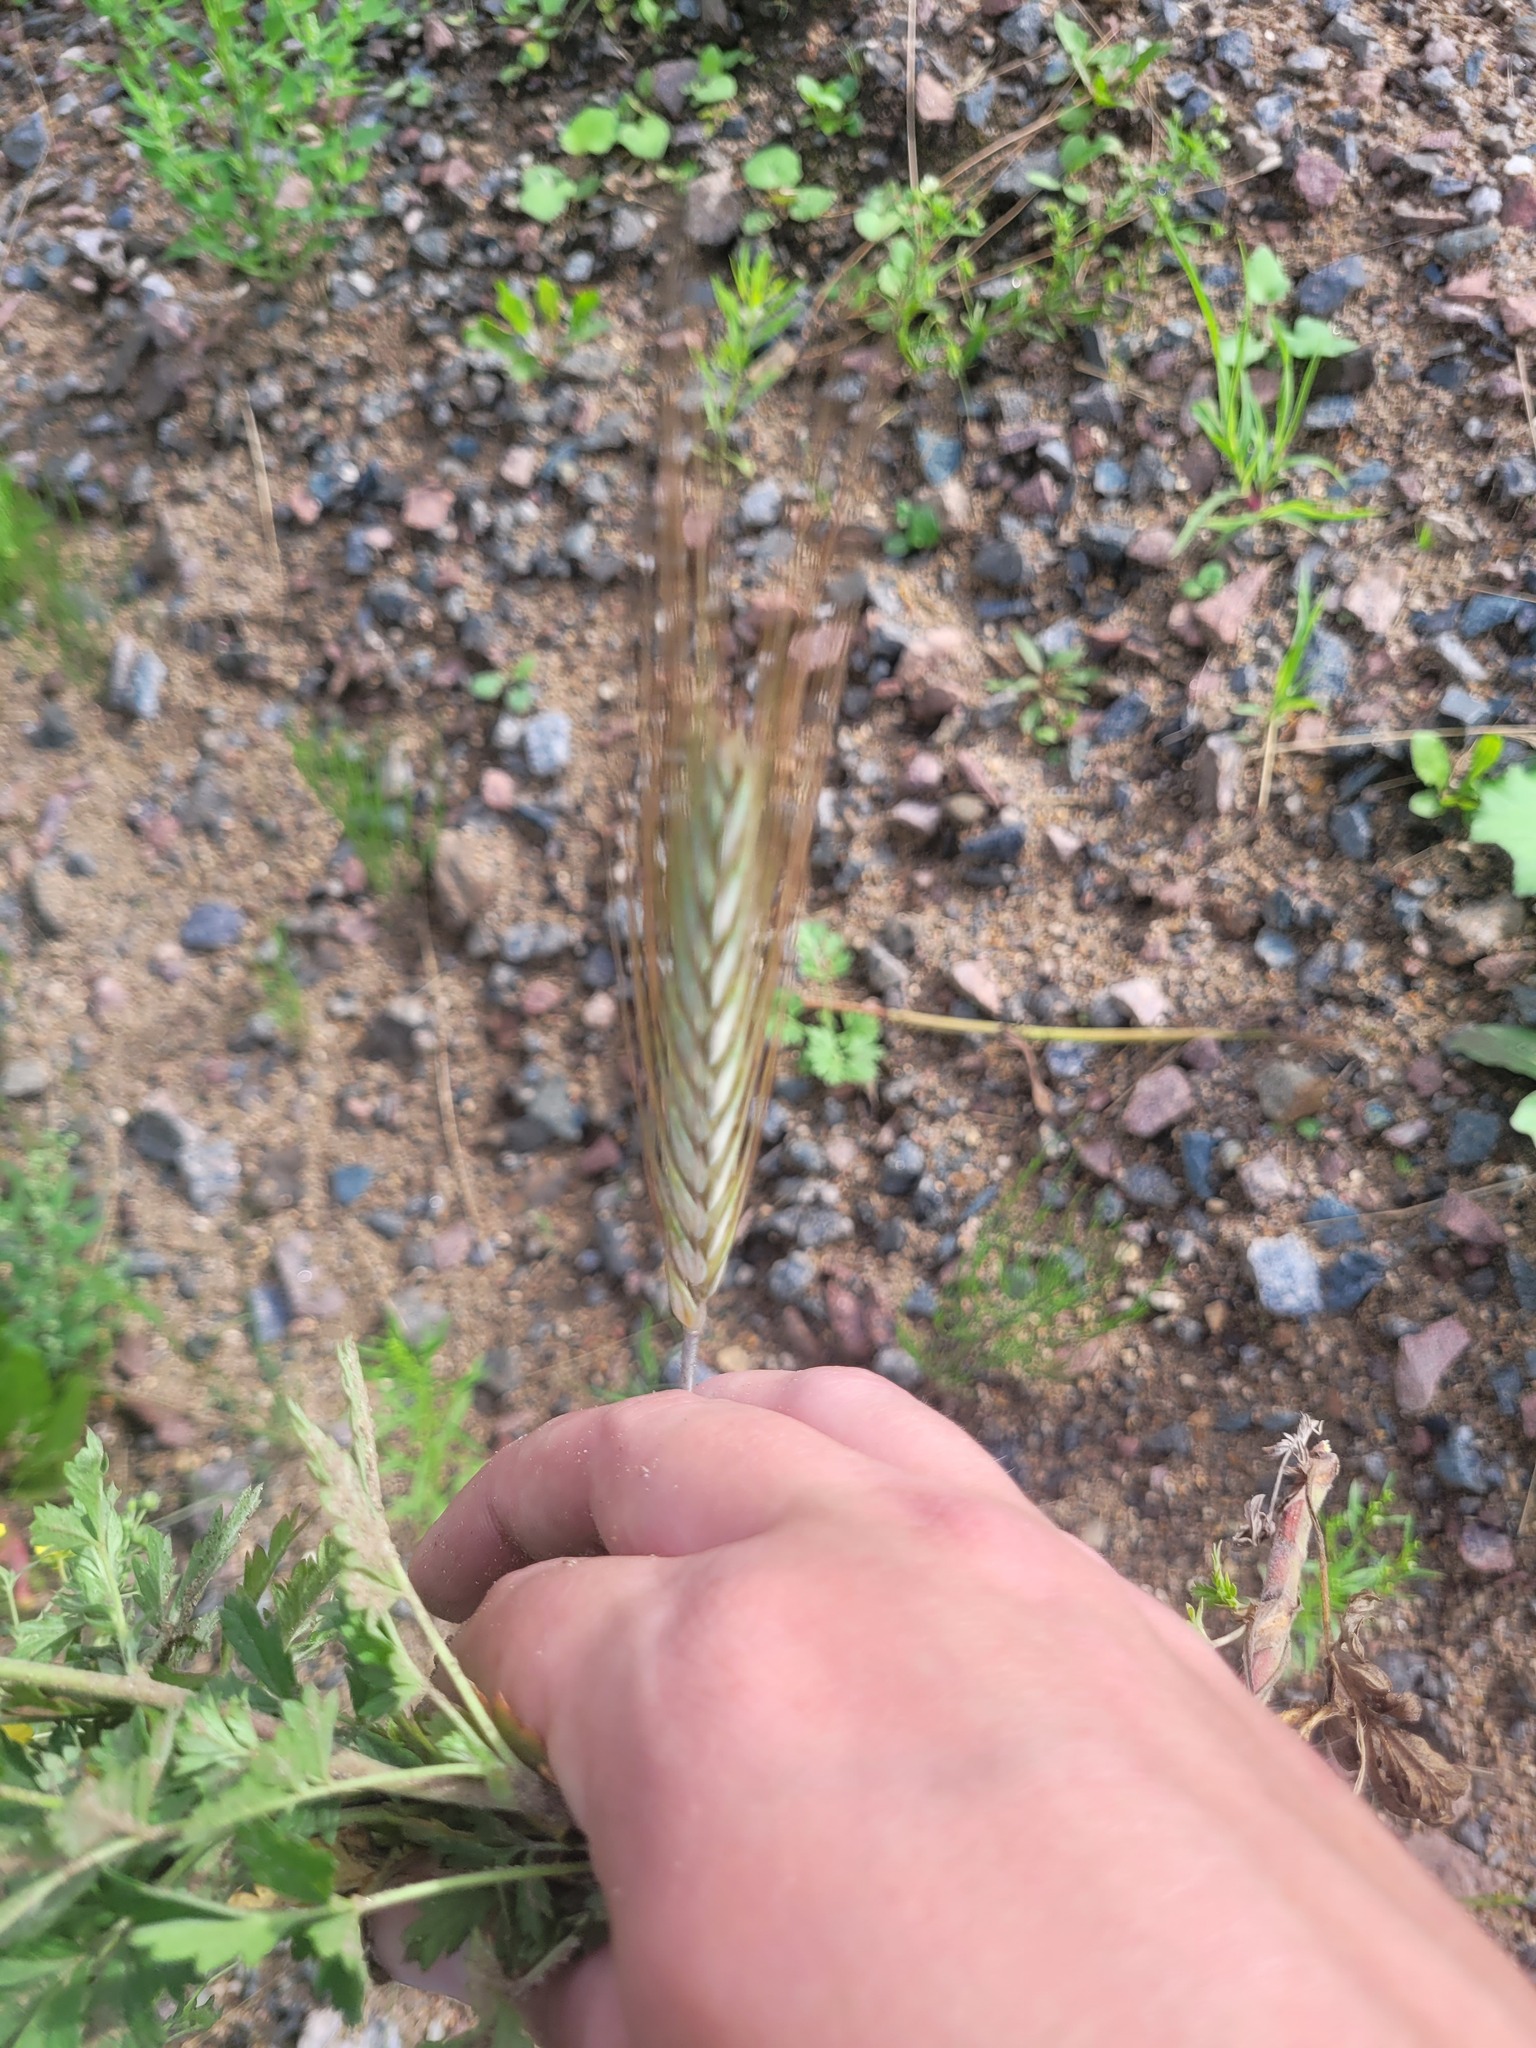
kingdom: Plantae
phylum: Tracheophyta
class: Liliopsida
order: Poales
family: Poaceae
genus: Secale
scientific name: Secale cereale
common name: Rye
